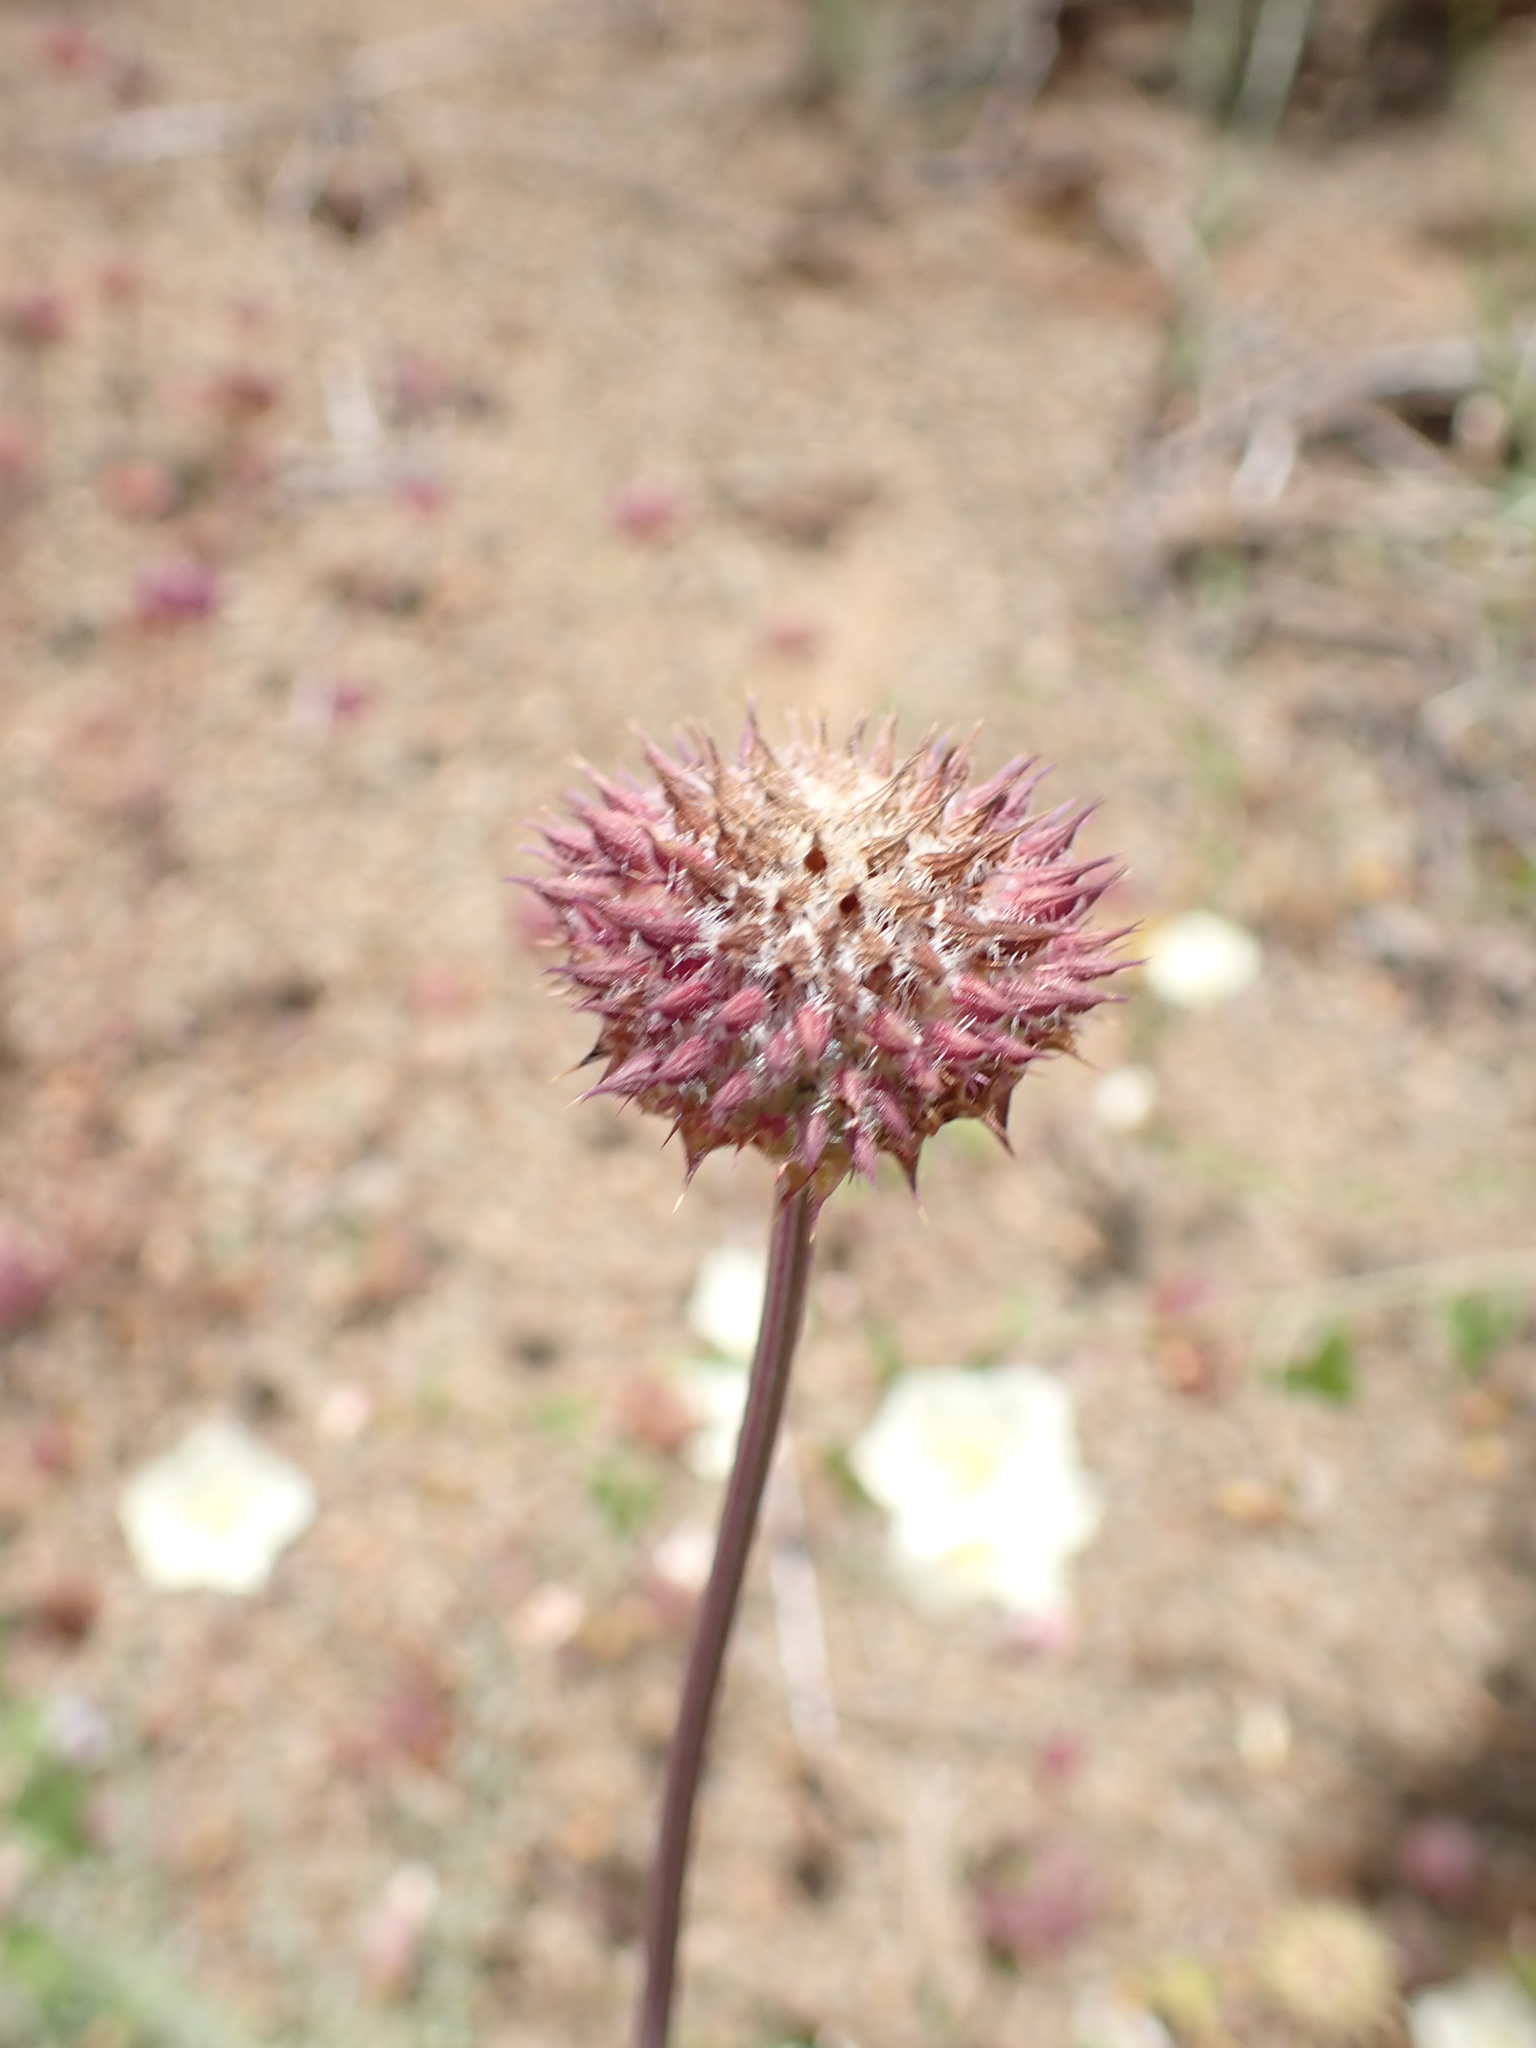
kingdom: Plantae
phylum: Tracheophyta
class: Magnoliopsida
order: Lamiales
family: Lamiaceae
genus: Salvia
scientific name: Salvia columbariae
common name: Chia
